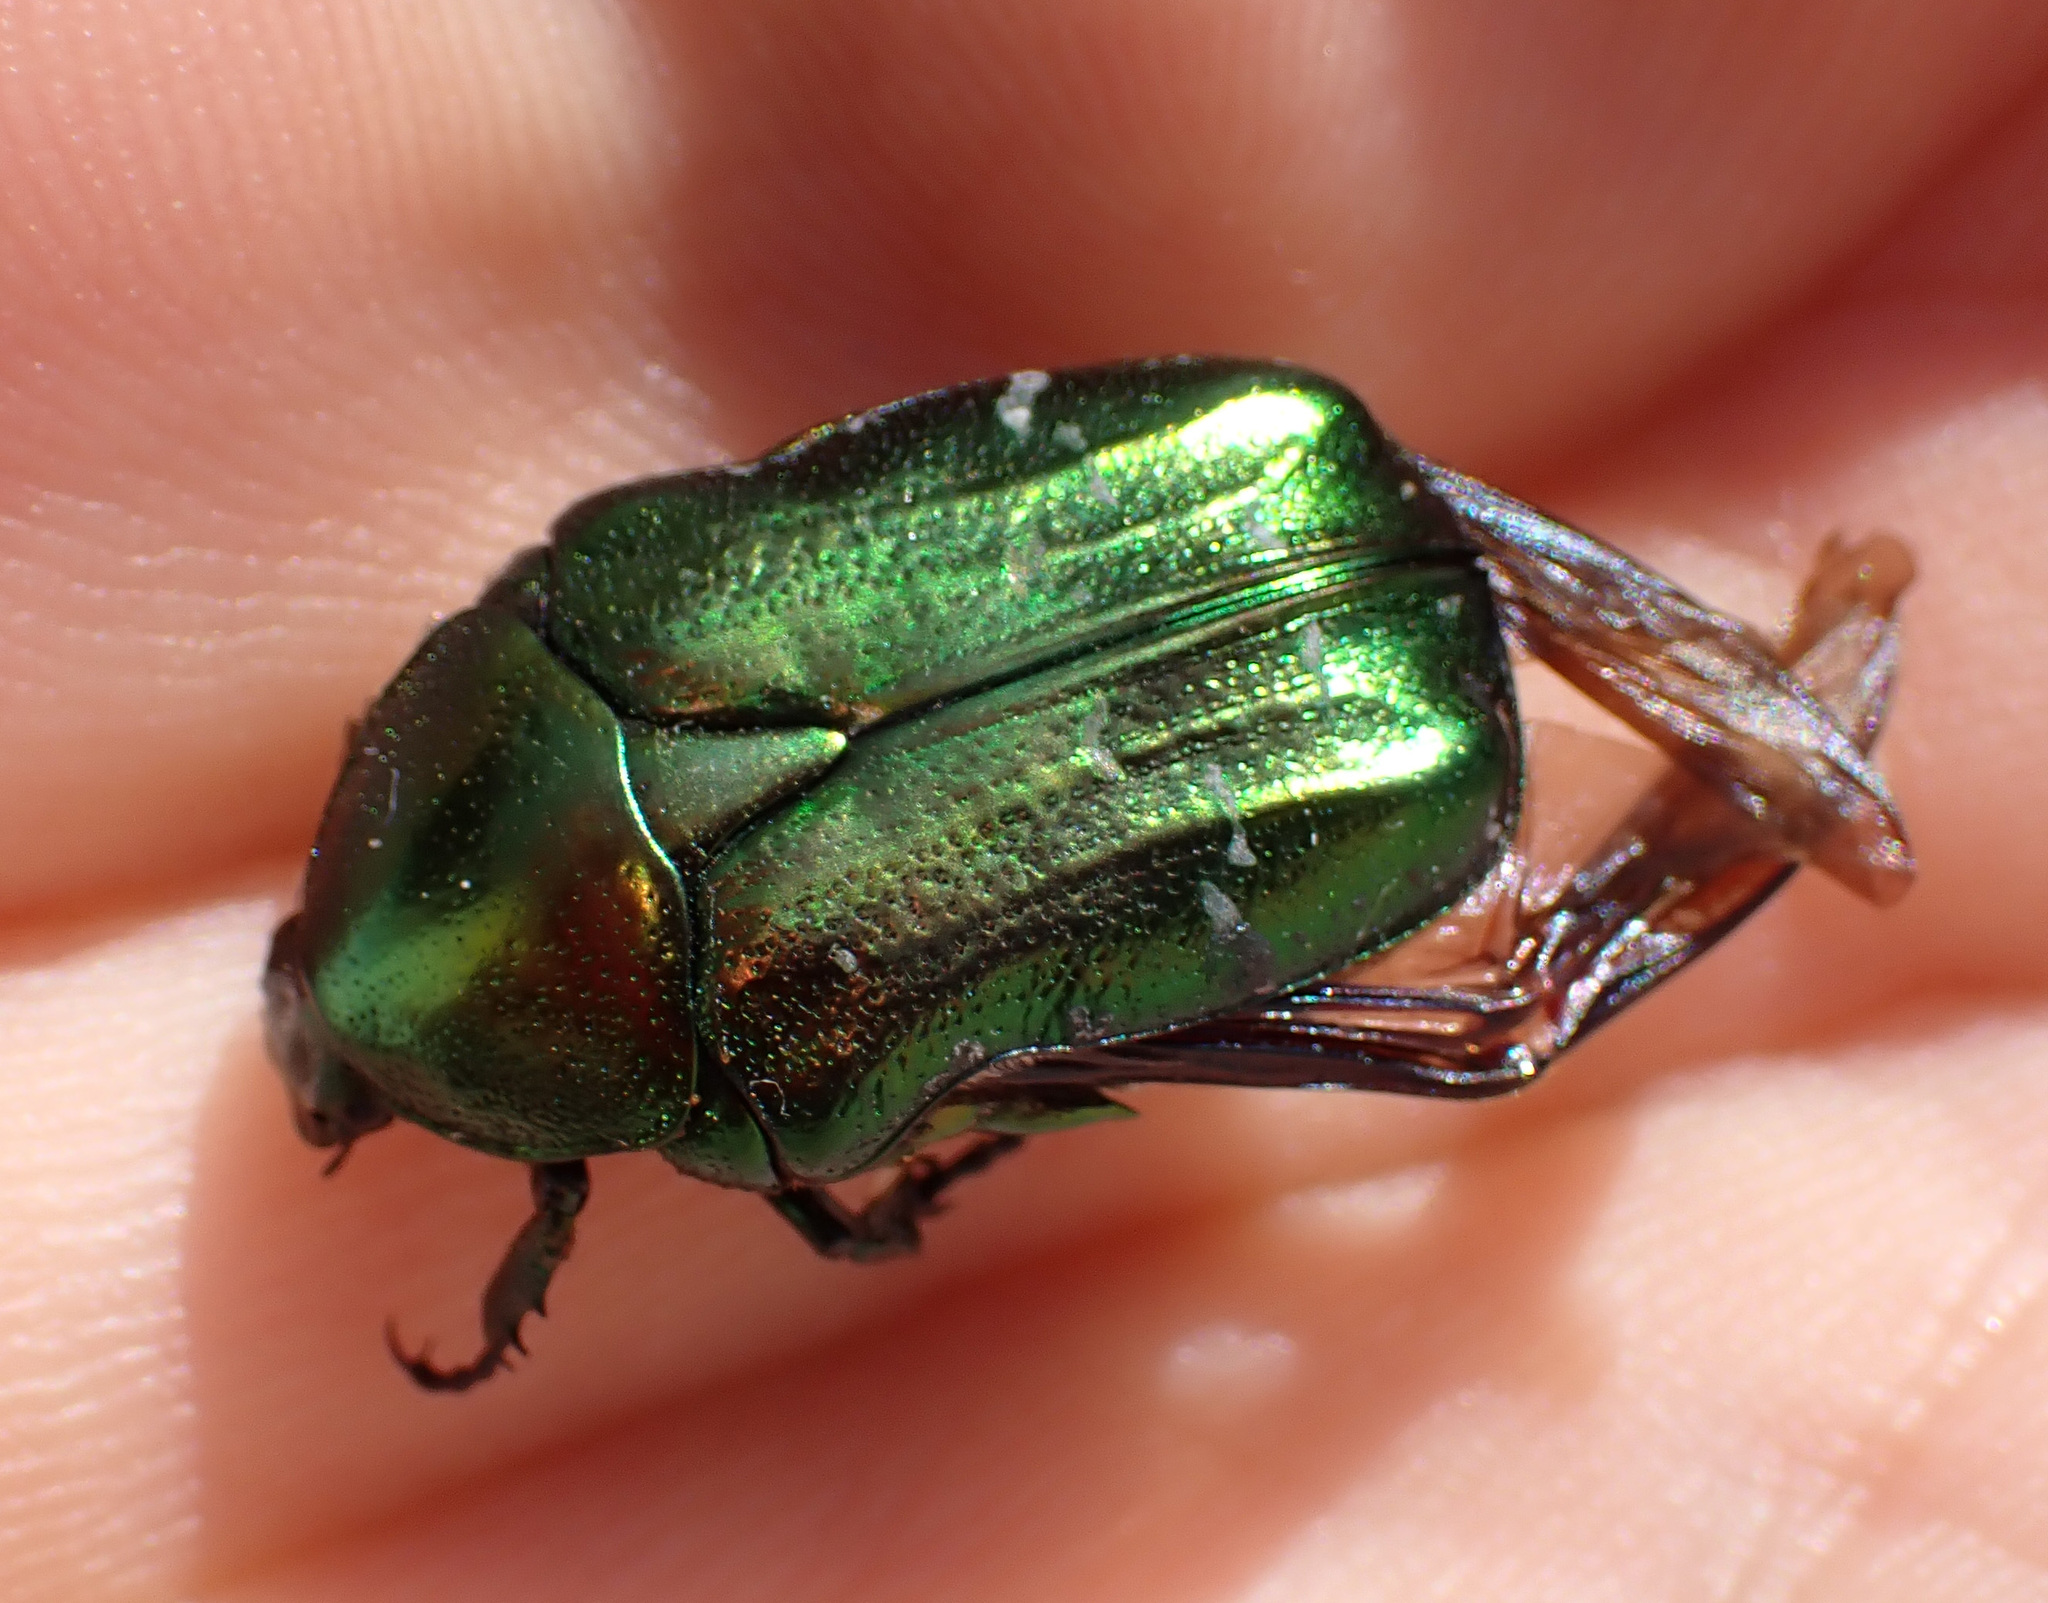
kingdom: Animalia
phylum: Arthropoda
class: Insecta
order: Coleoptera
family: Scarabaeidae
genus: Cetonia
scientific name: Cetonia aurata
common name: Rose chafer
